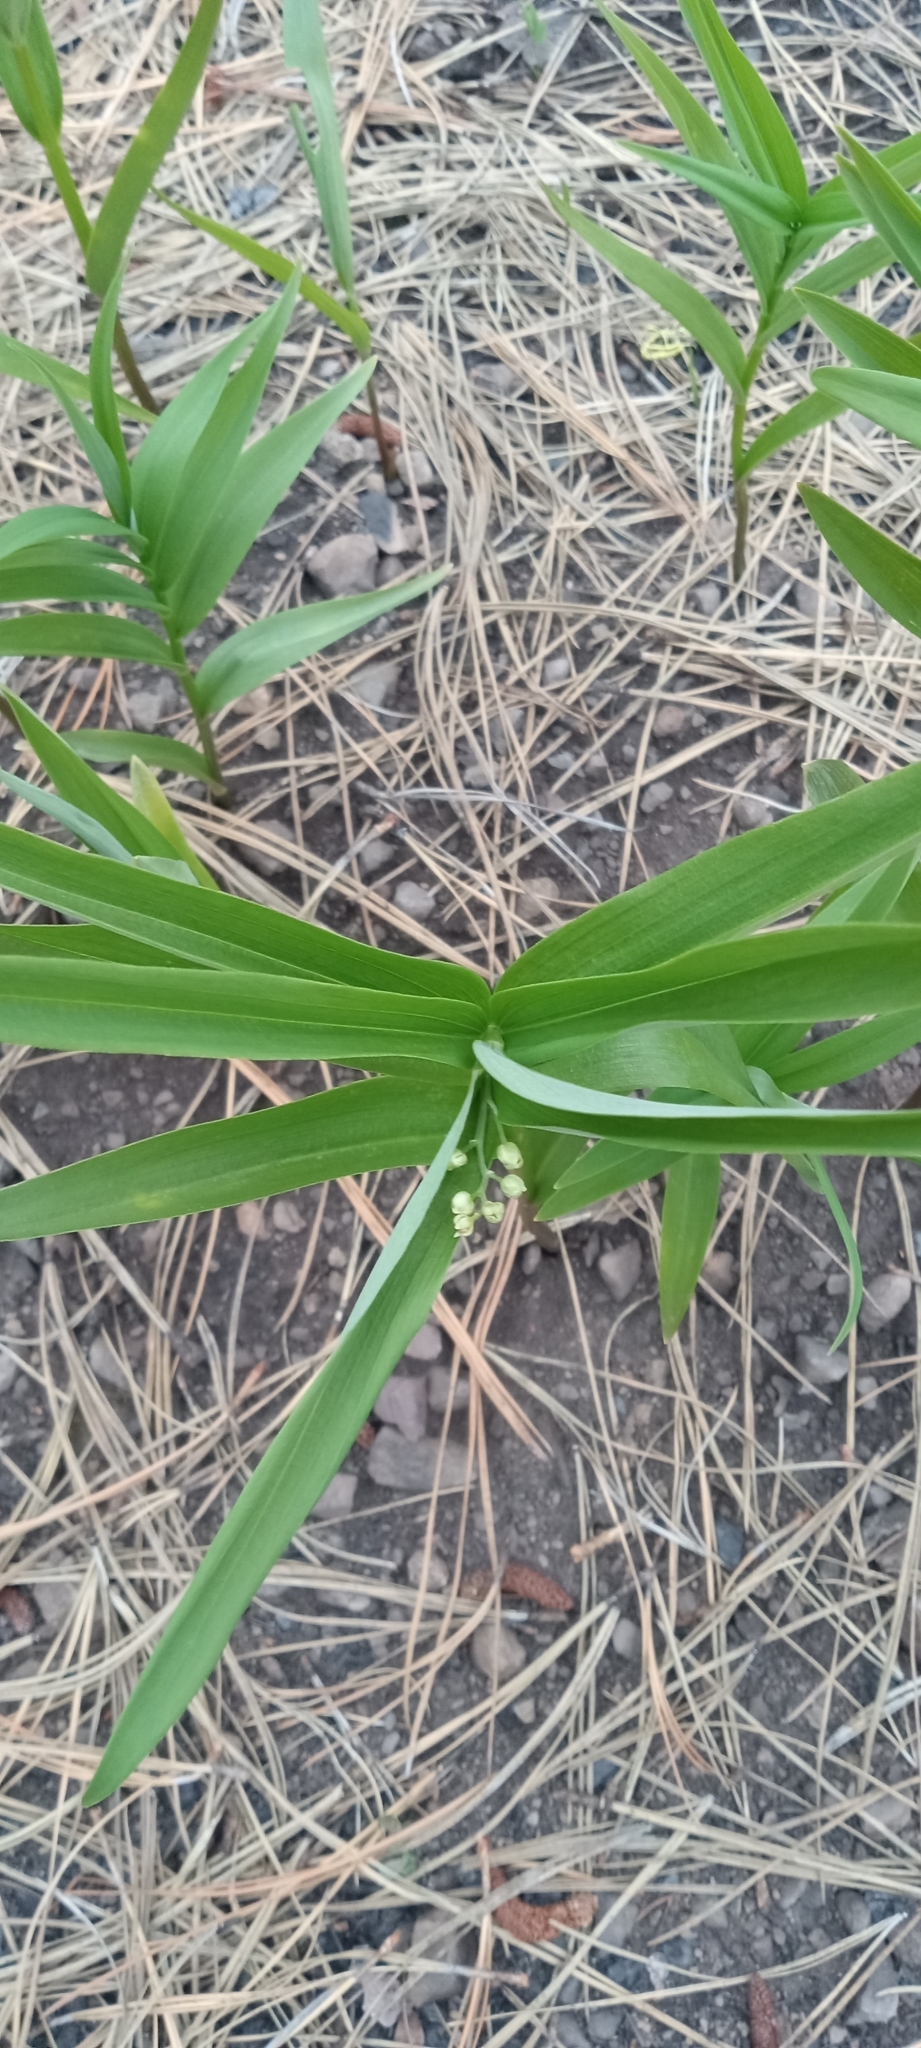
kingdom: Plantae
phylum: Tracheophyta
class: Liliopsida
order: Asparagales
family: Asparagaceae
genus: Maianthemum
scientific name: Maianthemum stellatum
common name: Little false solomon's seal
